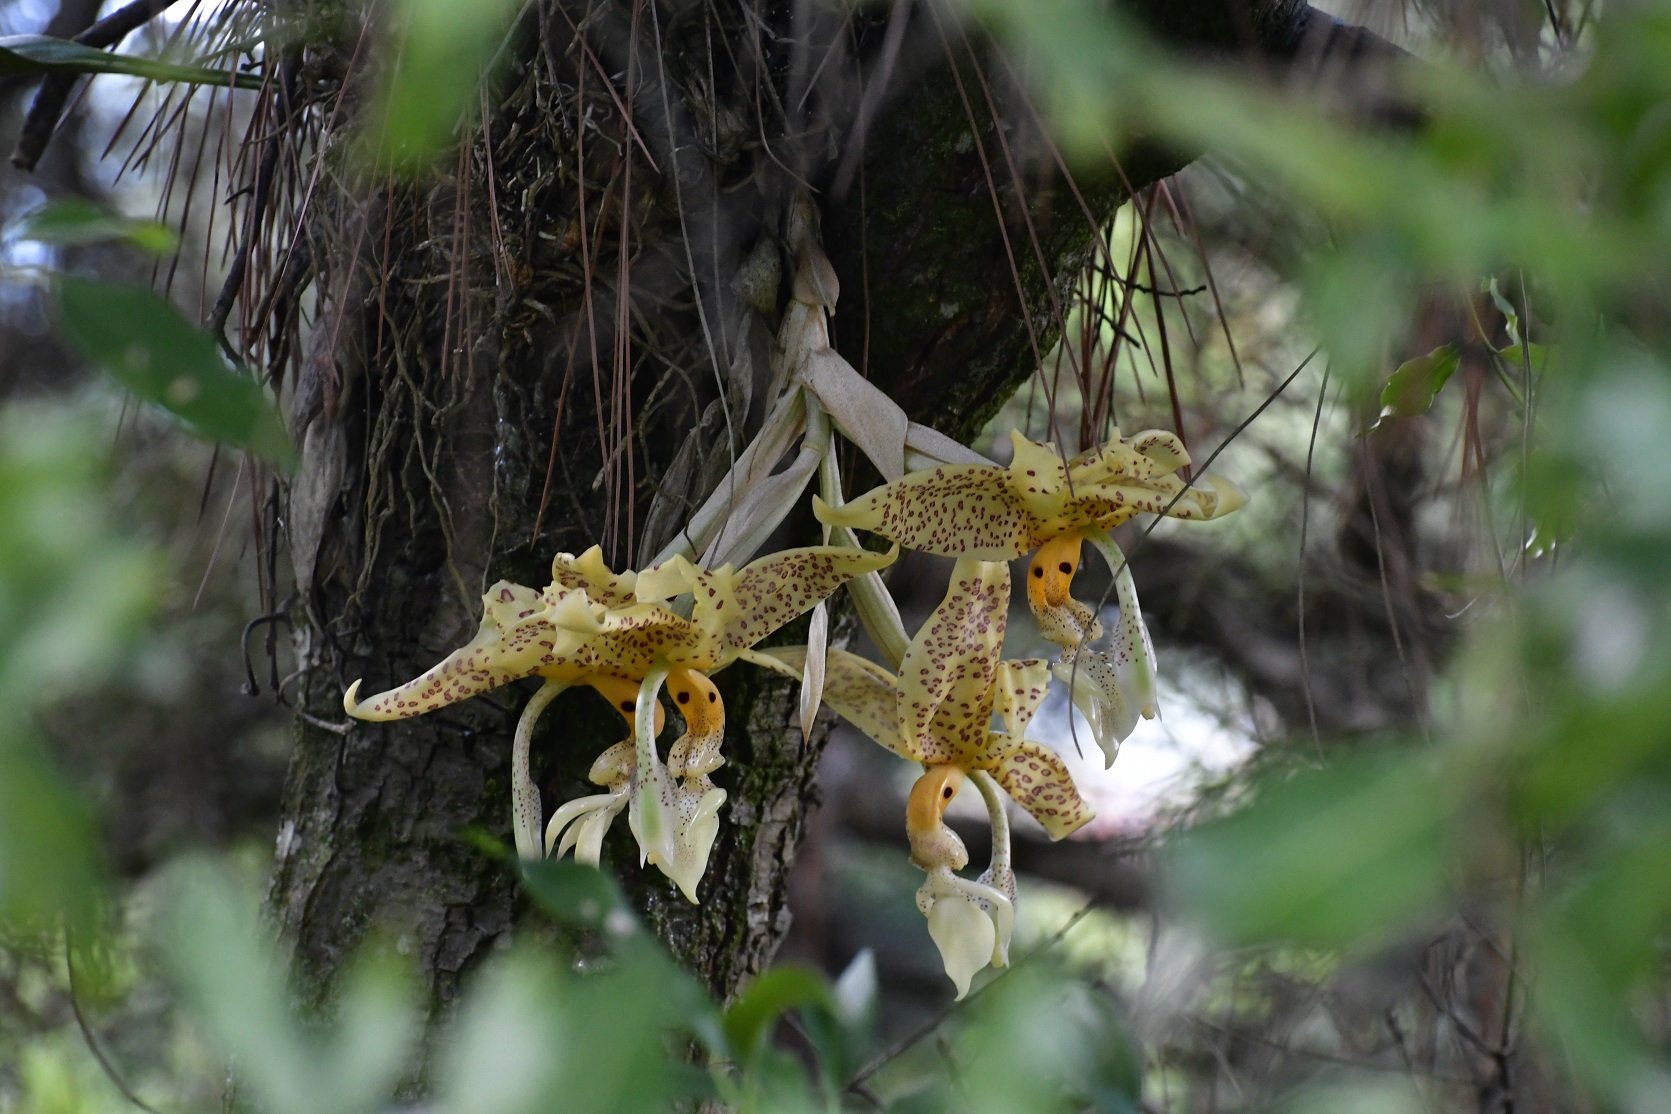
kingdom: Plantae
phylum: Tracheophyta
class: Liliopsida
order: Asparagales
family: Orchidaceae
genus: Stanhopea
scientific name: Stanhopea oculata
